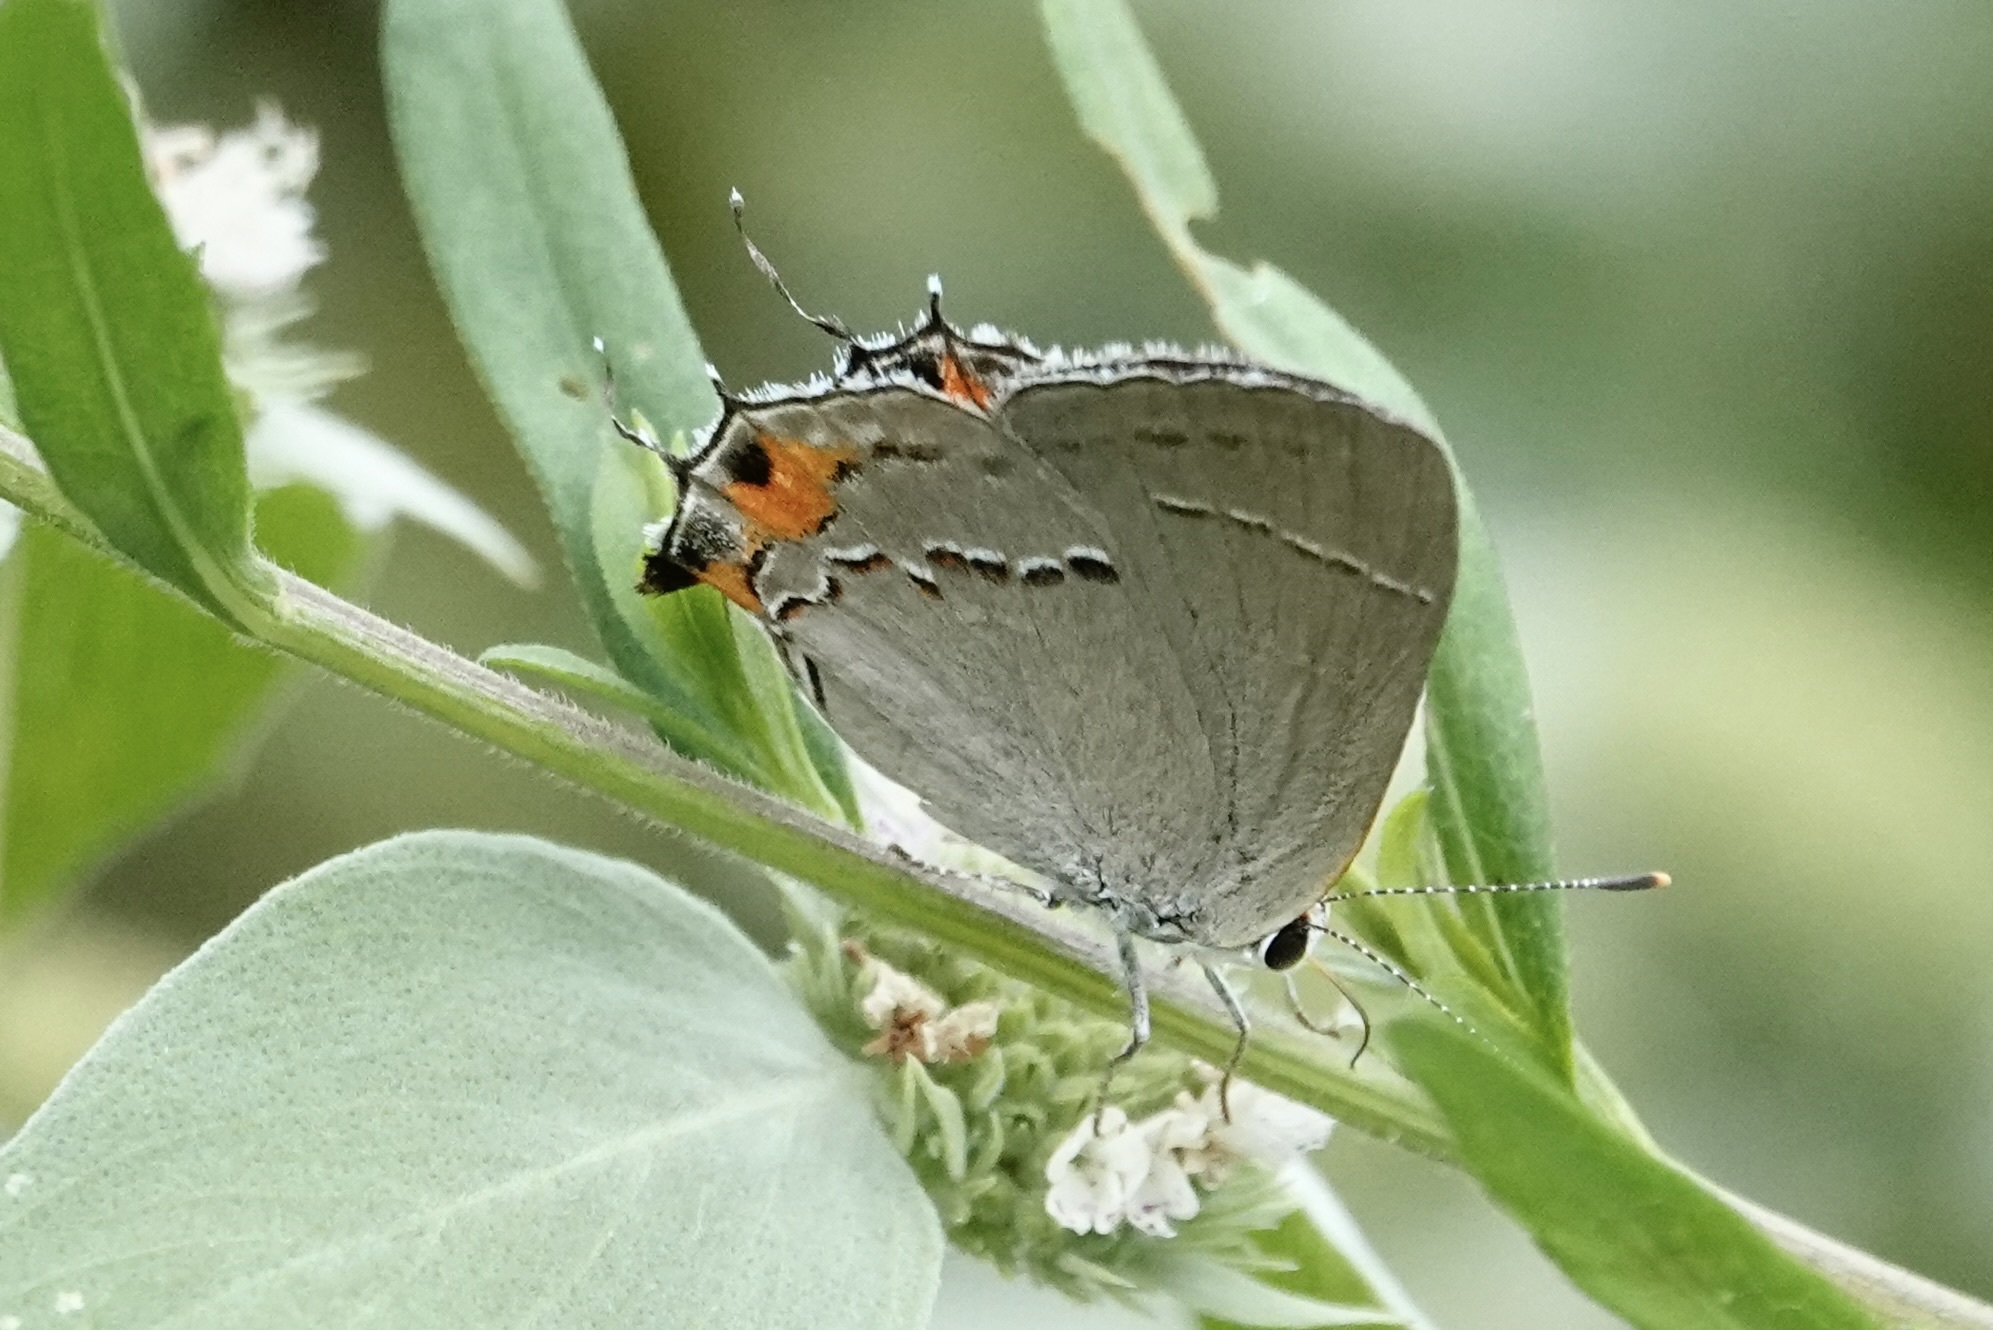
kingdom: Animalia
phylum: Arthropoda
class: Insecta
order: Lepidoptera
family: Lycaenidae
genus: Strymon
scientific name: Strymon melinus
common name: Gray hairstreak
